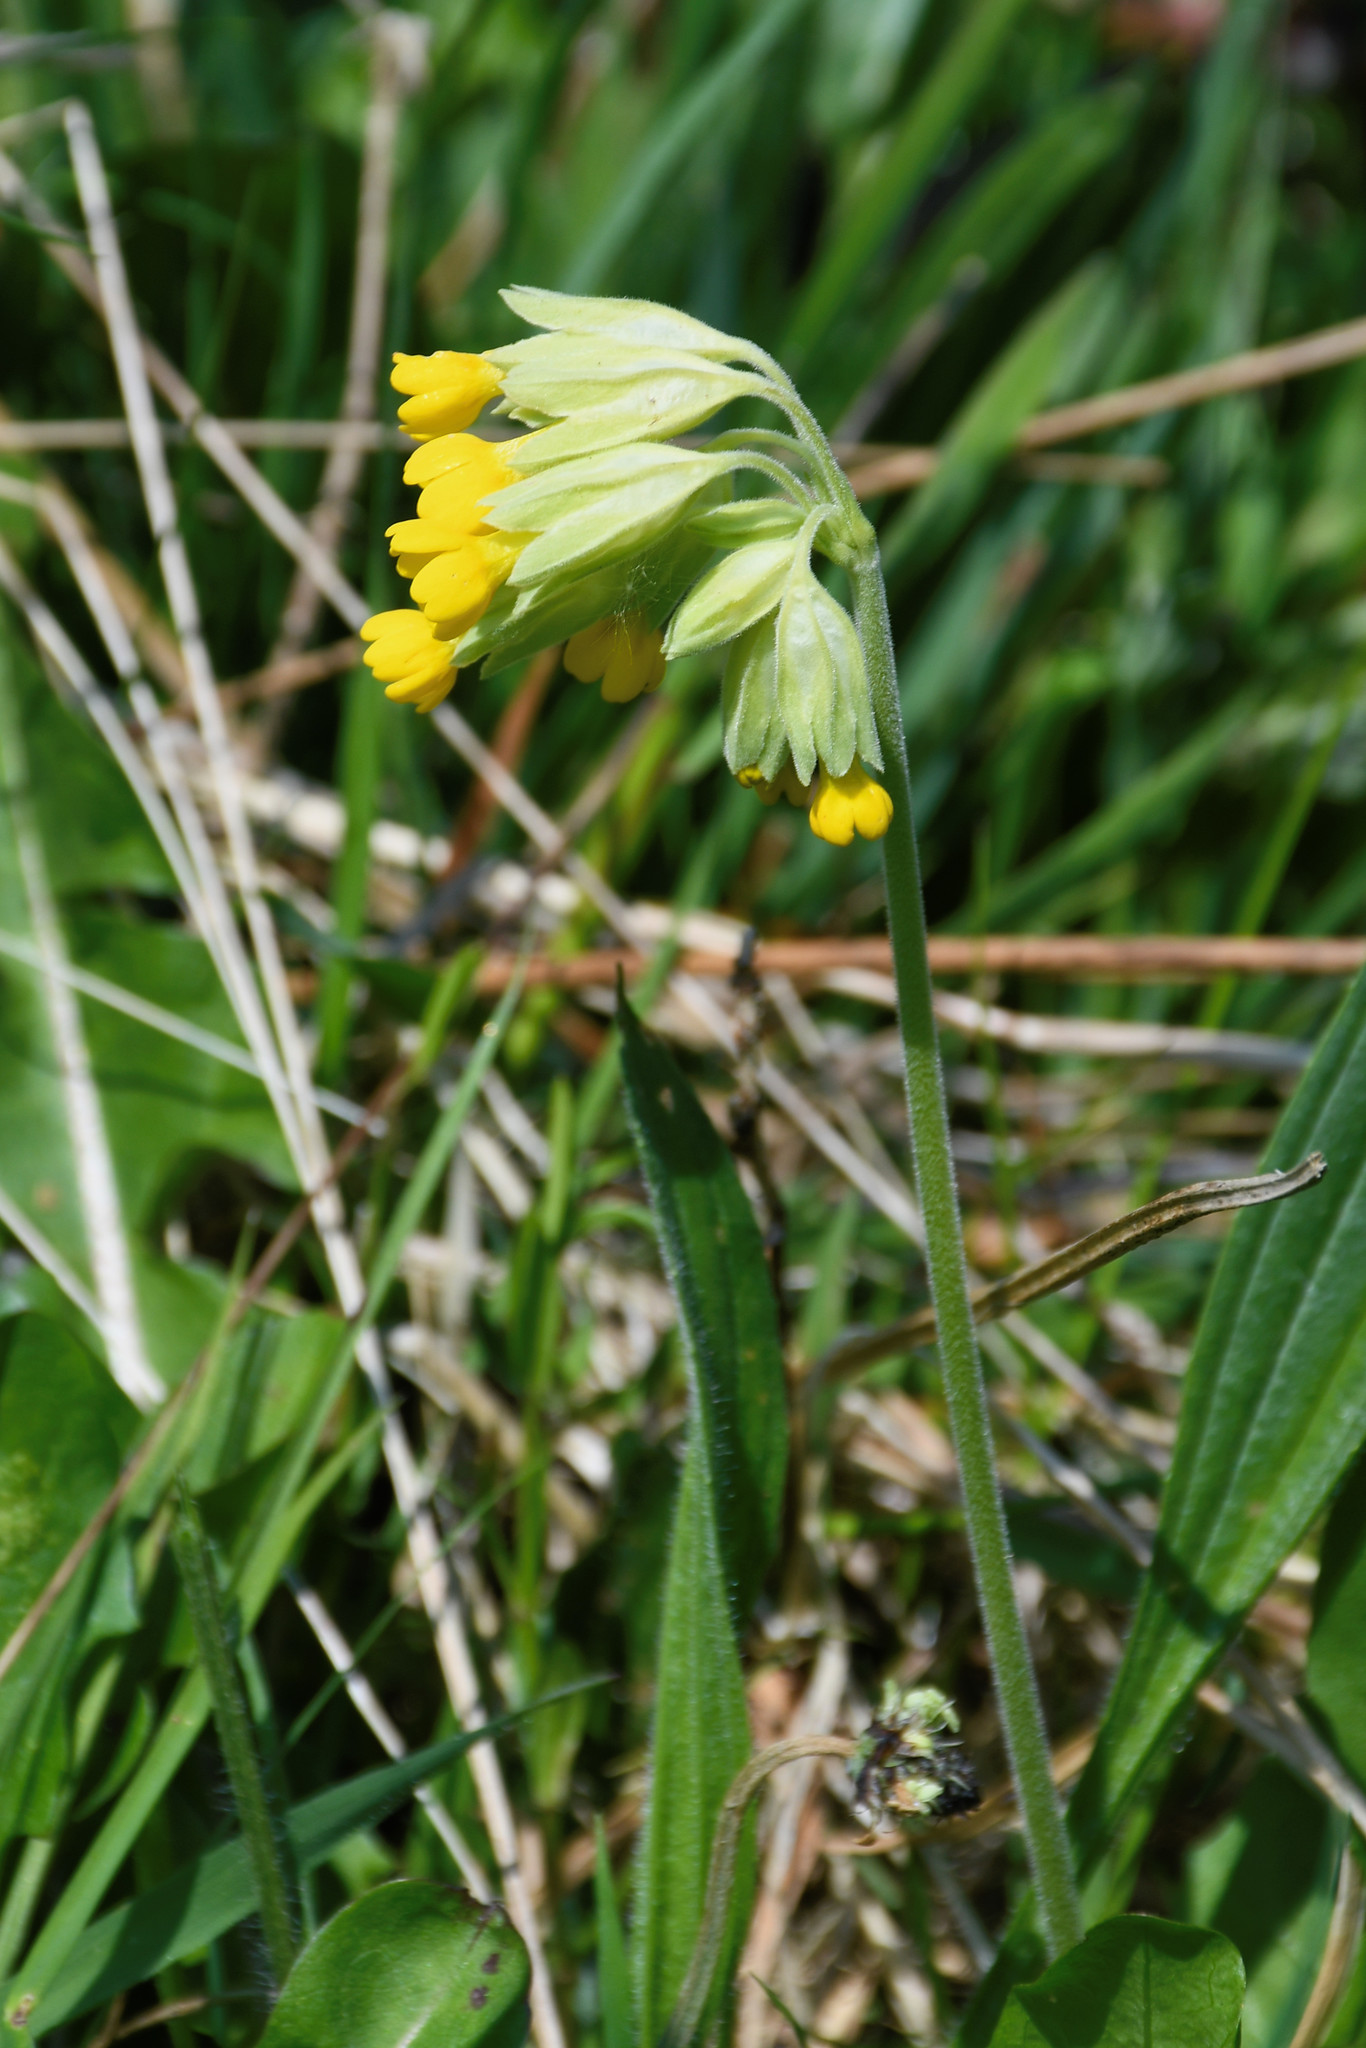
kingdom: Plantae
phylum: Tracheophyta
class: Magnoliopsida
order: Ericales
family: Primulaceae
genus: Primula
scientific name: Primula veris
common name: Cowslip
